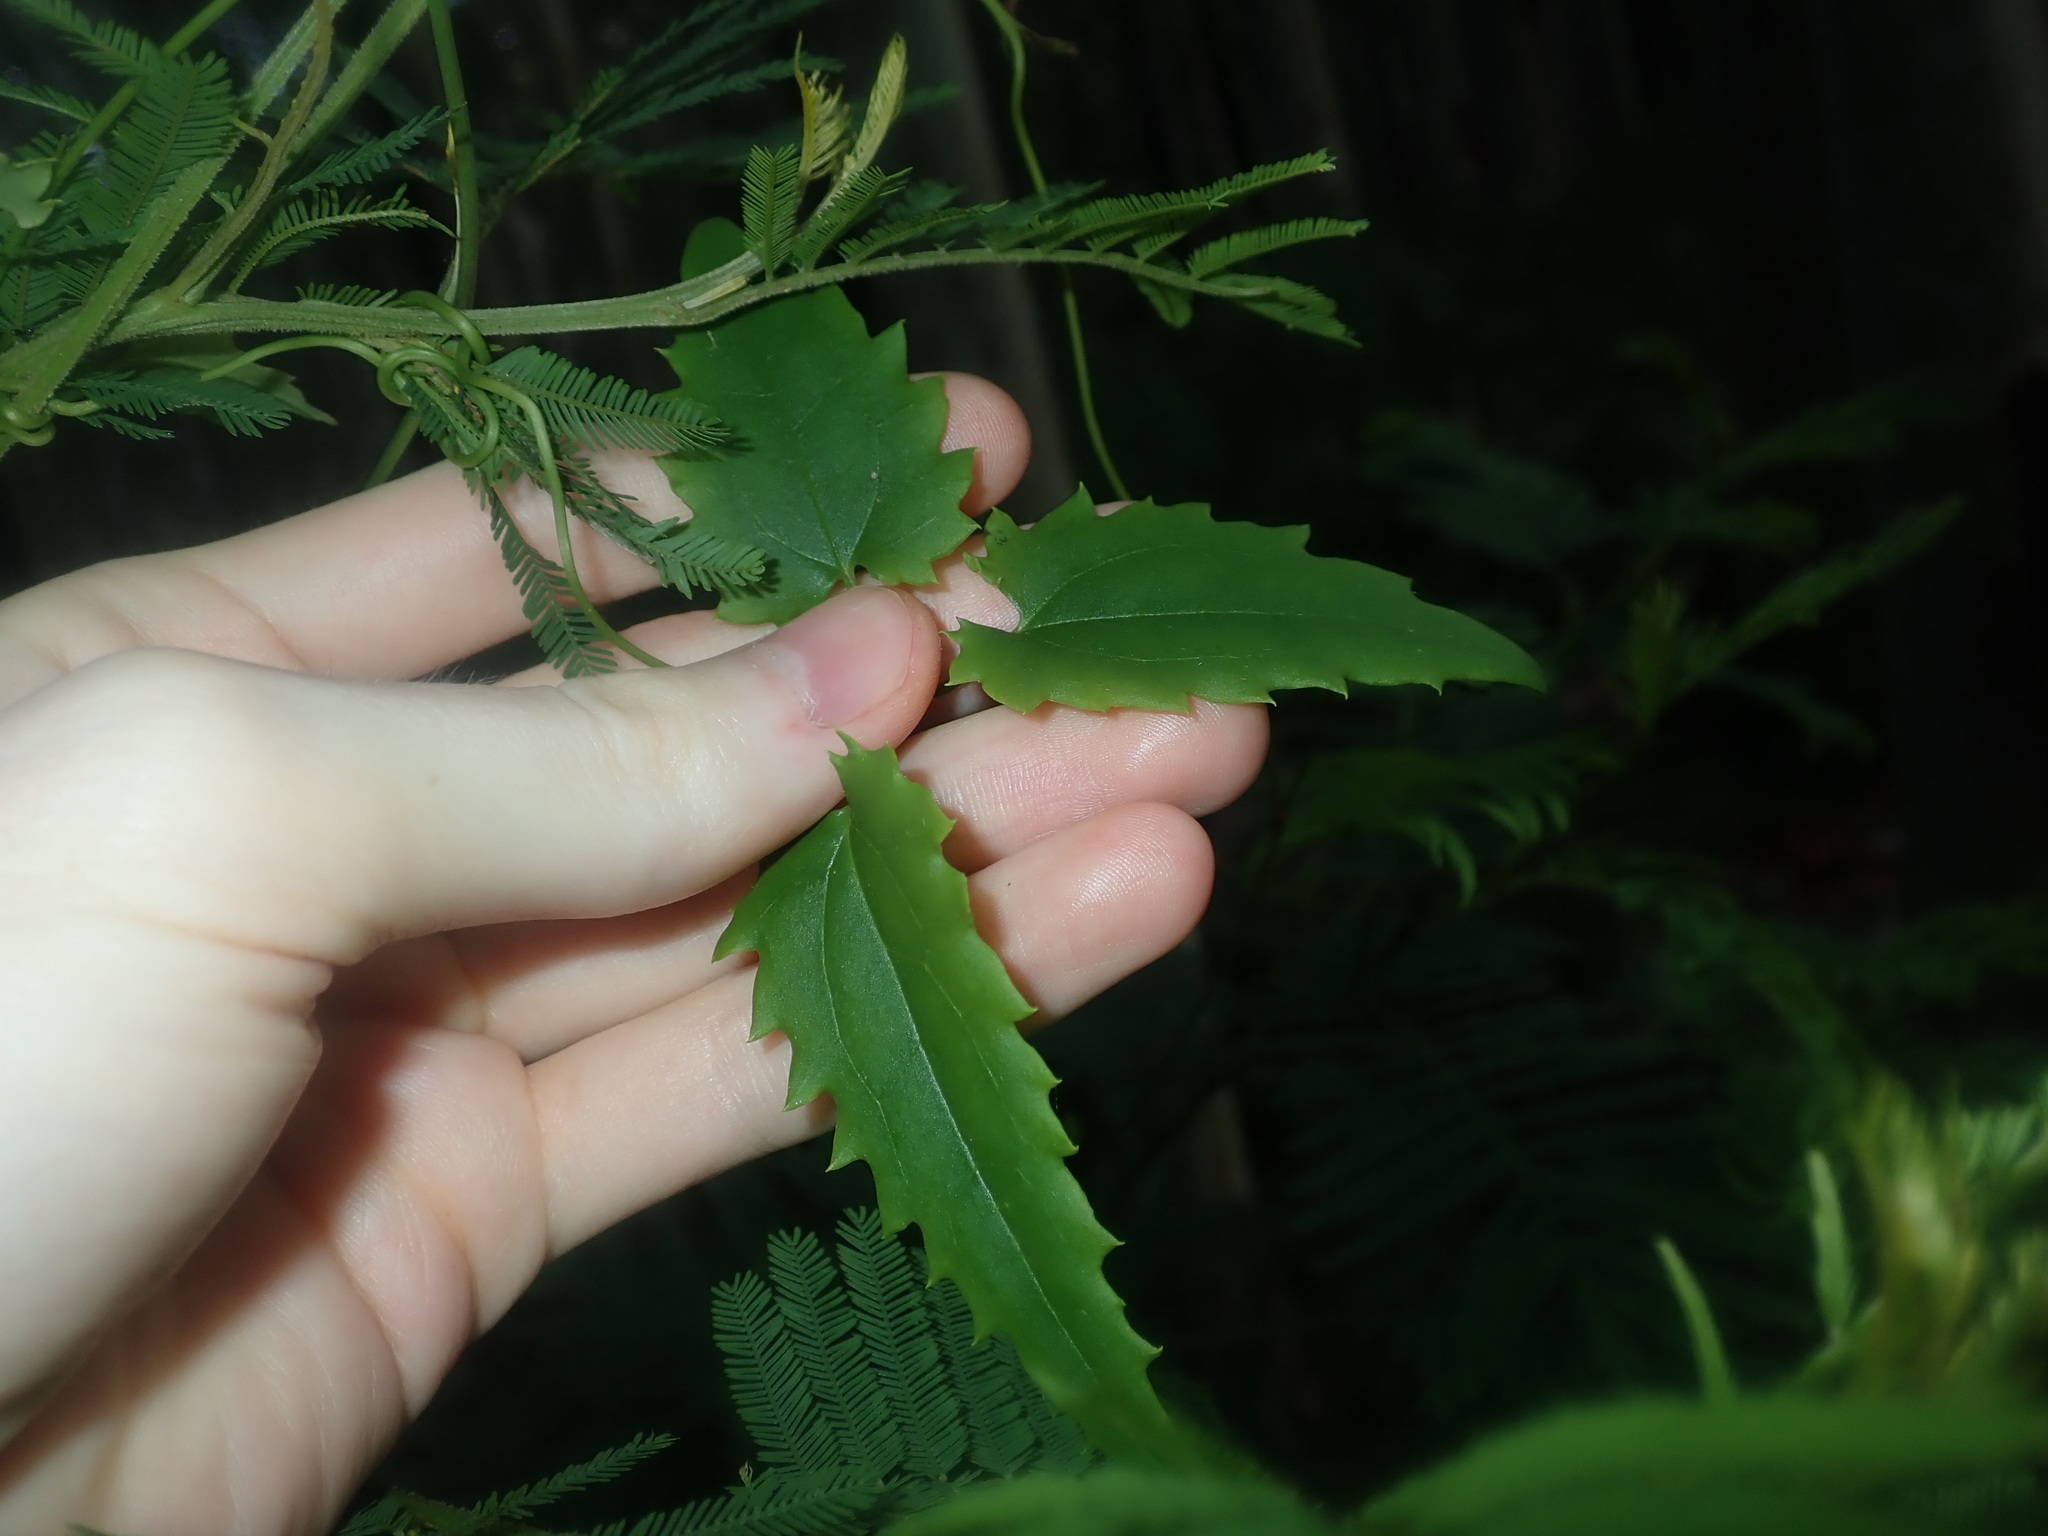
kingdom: Plantae
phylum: Tracheophyta
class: Magnoliopsida
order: Ranunculales
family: Ranunculaceae
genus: Clematis
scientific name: Clematis aristata
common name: Mountain clematis
